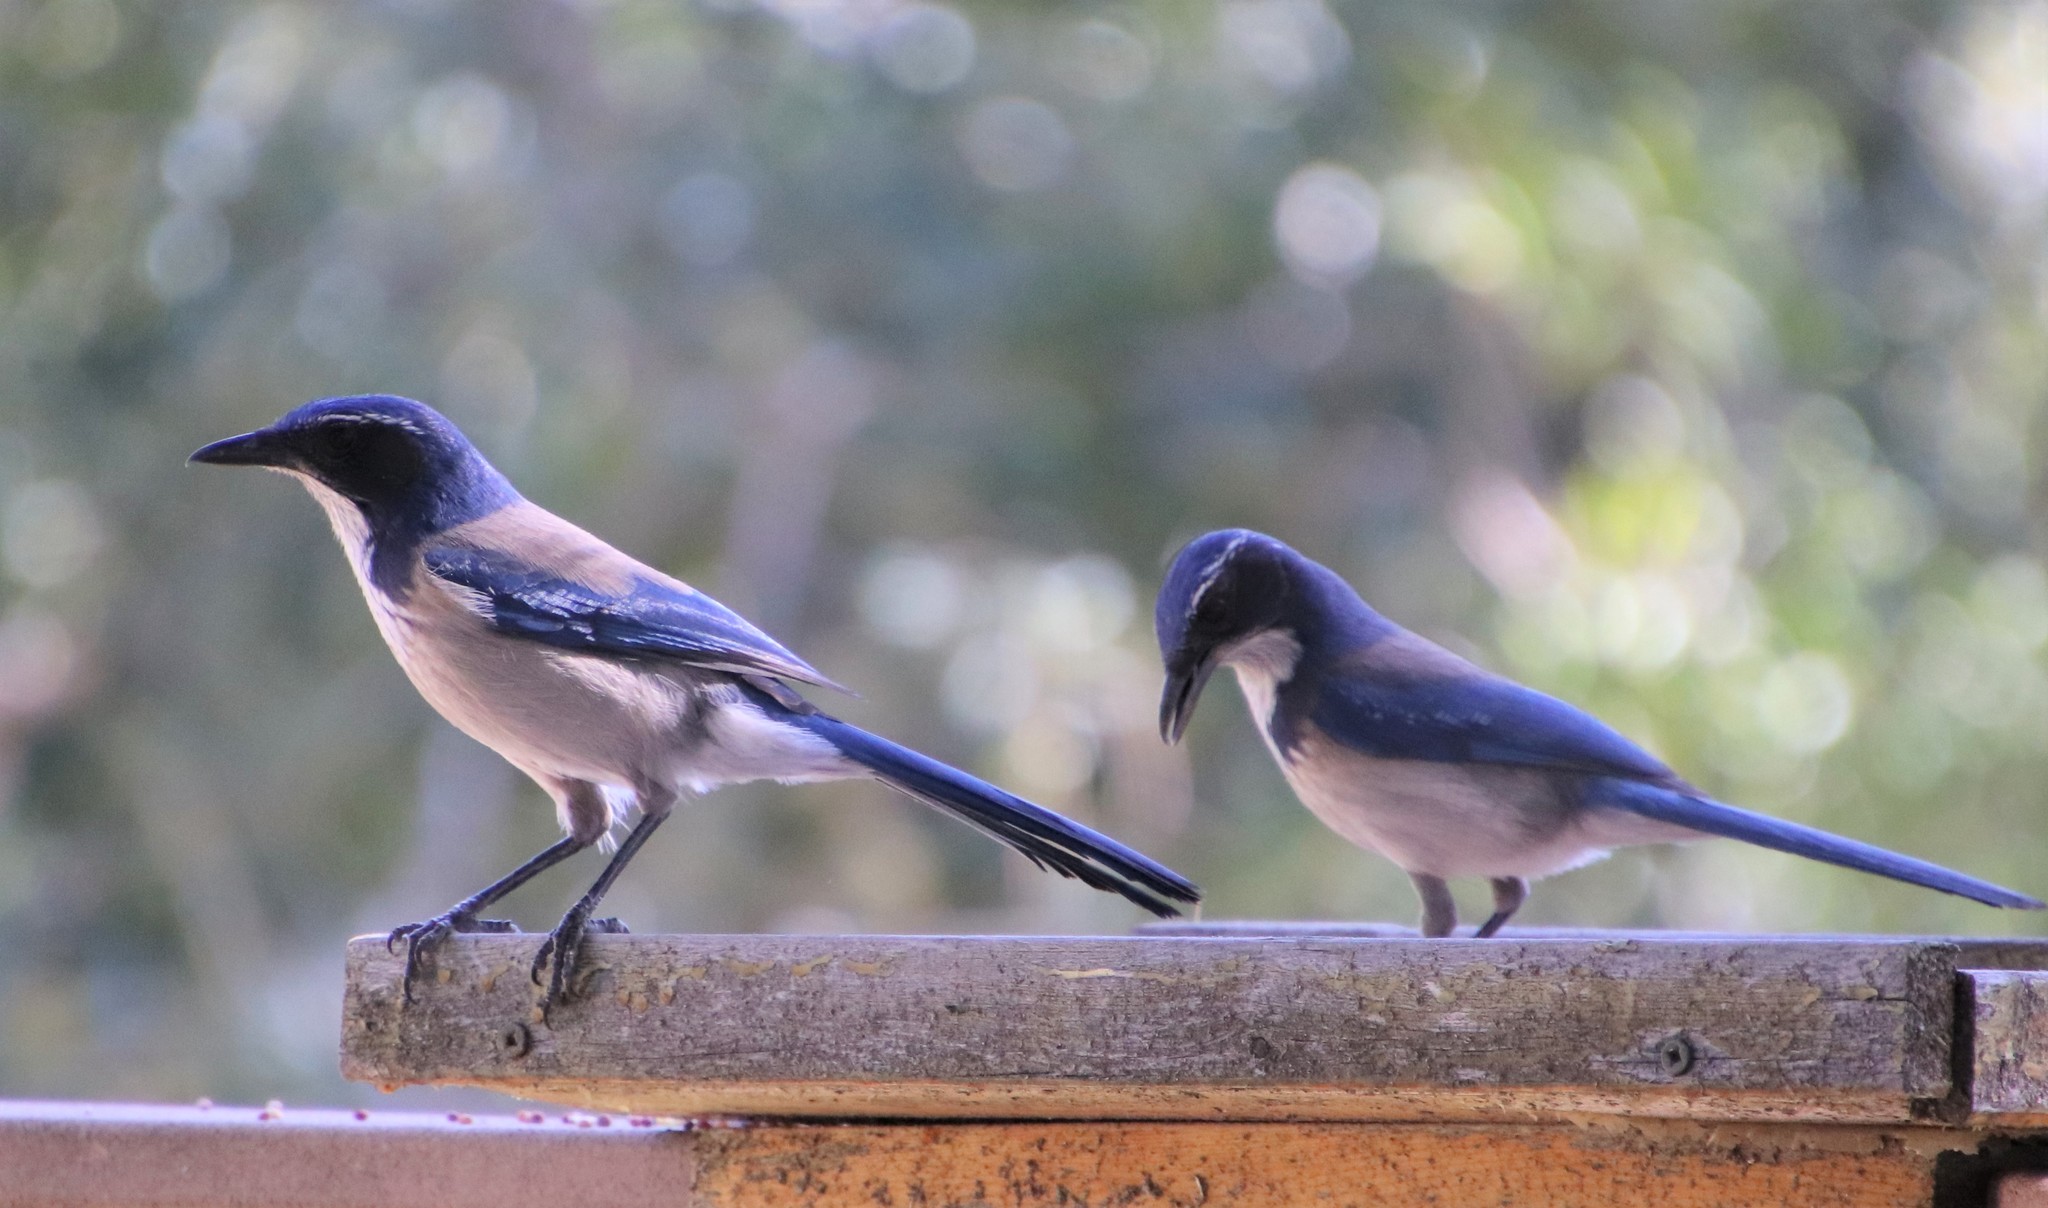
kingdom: Animalia
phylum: Chordata
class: Aves
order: Passeriformes
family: Corvidae
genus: Aphelocoma
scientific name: Aphelocoma californica
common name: California scrub-jay
